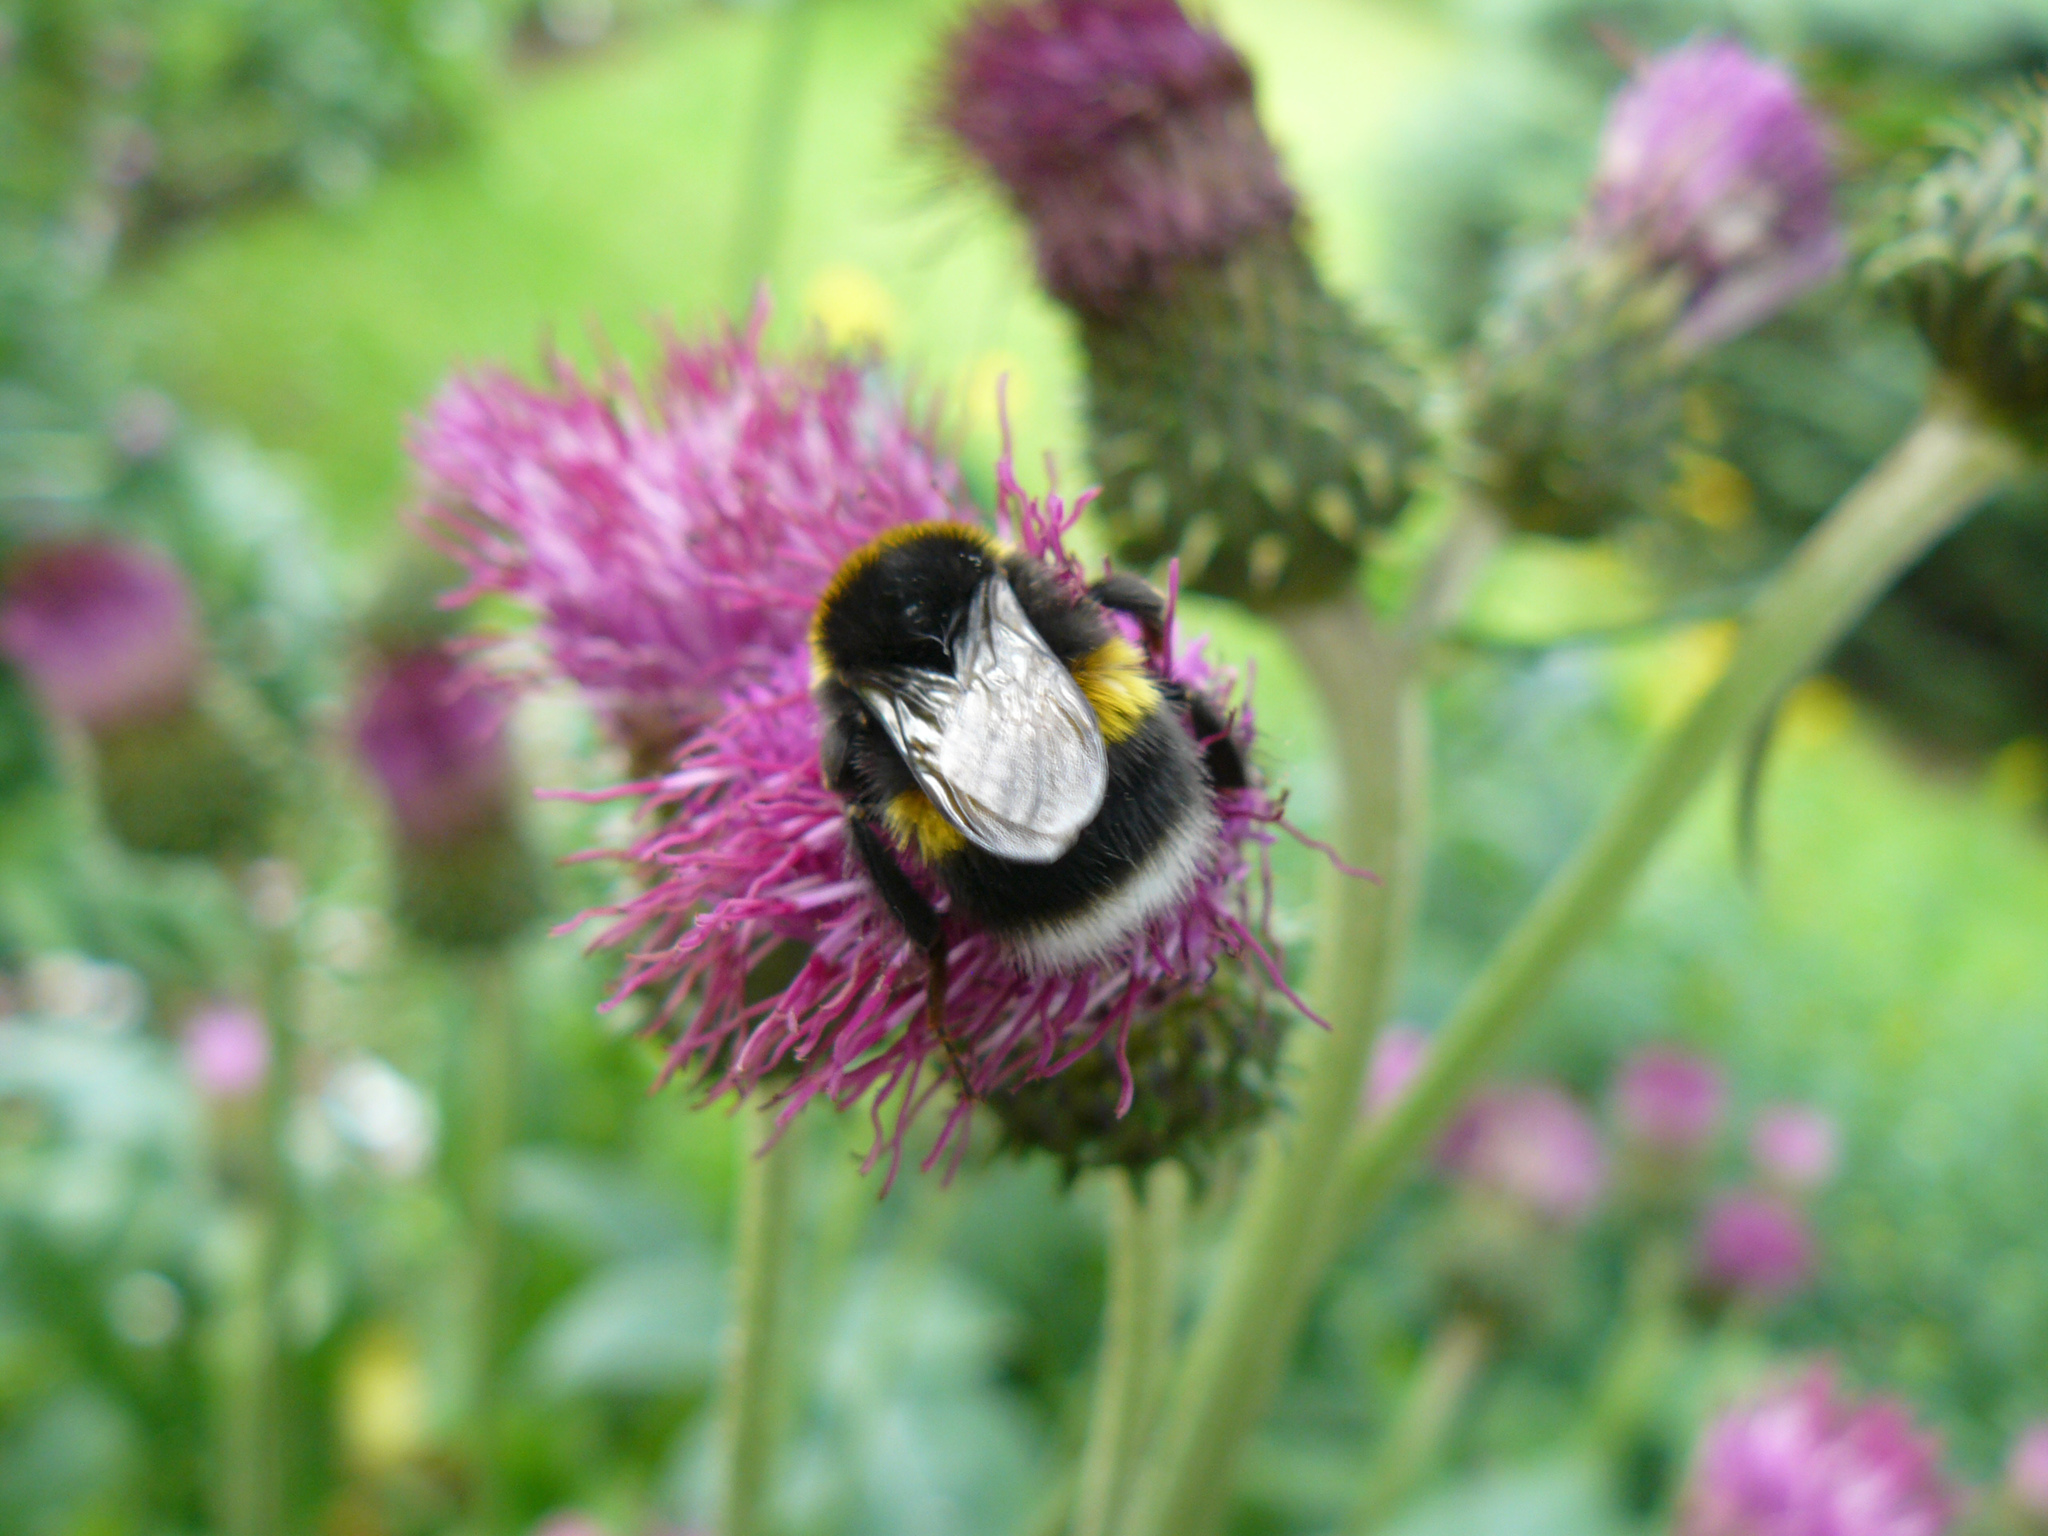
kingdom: Animalia
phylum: Arthropoda
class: Insecta
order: Hymenoptera
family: Apidae
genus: Bombus
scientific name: Bombus lucorum
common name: White-tailed bumblebee
